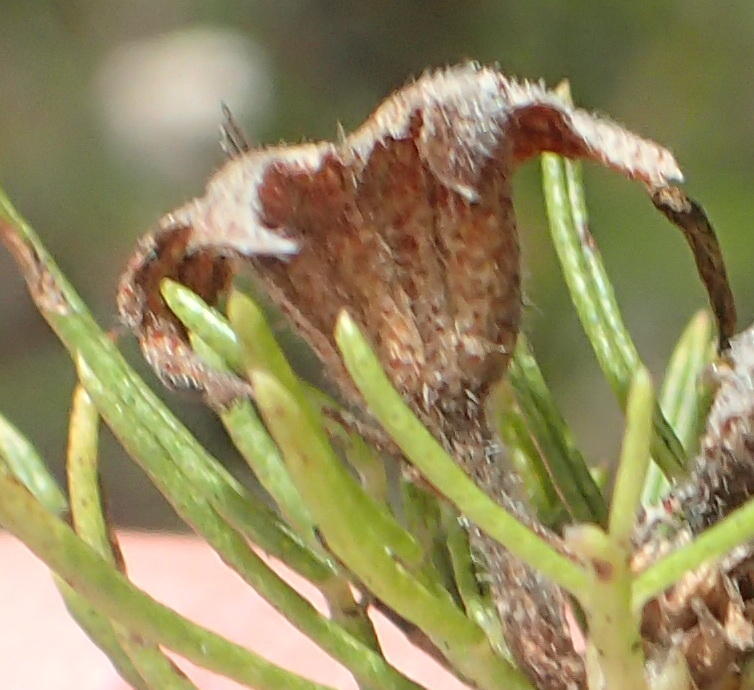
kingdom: Plantae
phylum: Tracheophyta
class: Magnoliopsida
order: Fabales
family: Fabaceae
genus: Psoralea
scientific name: Psoralea speciosa
